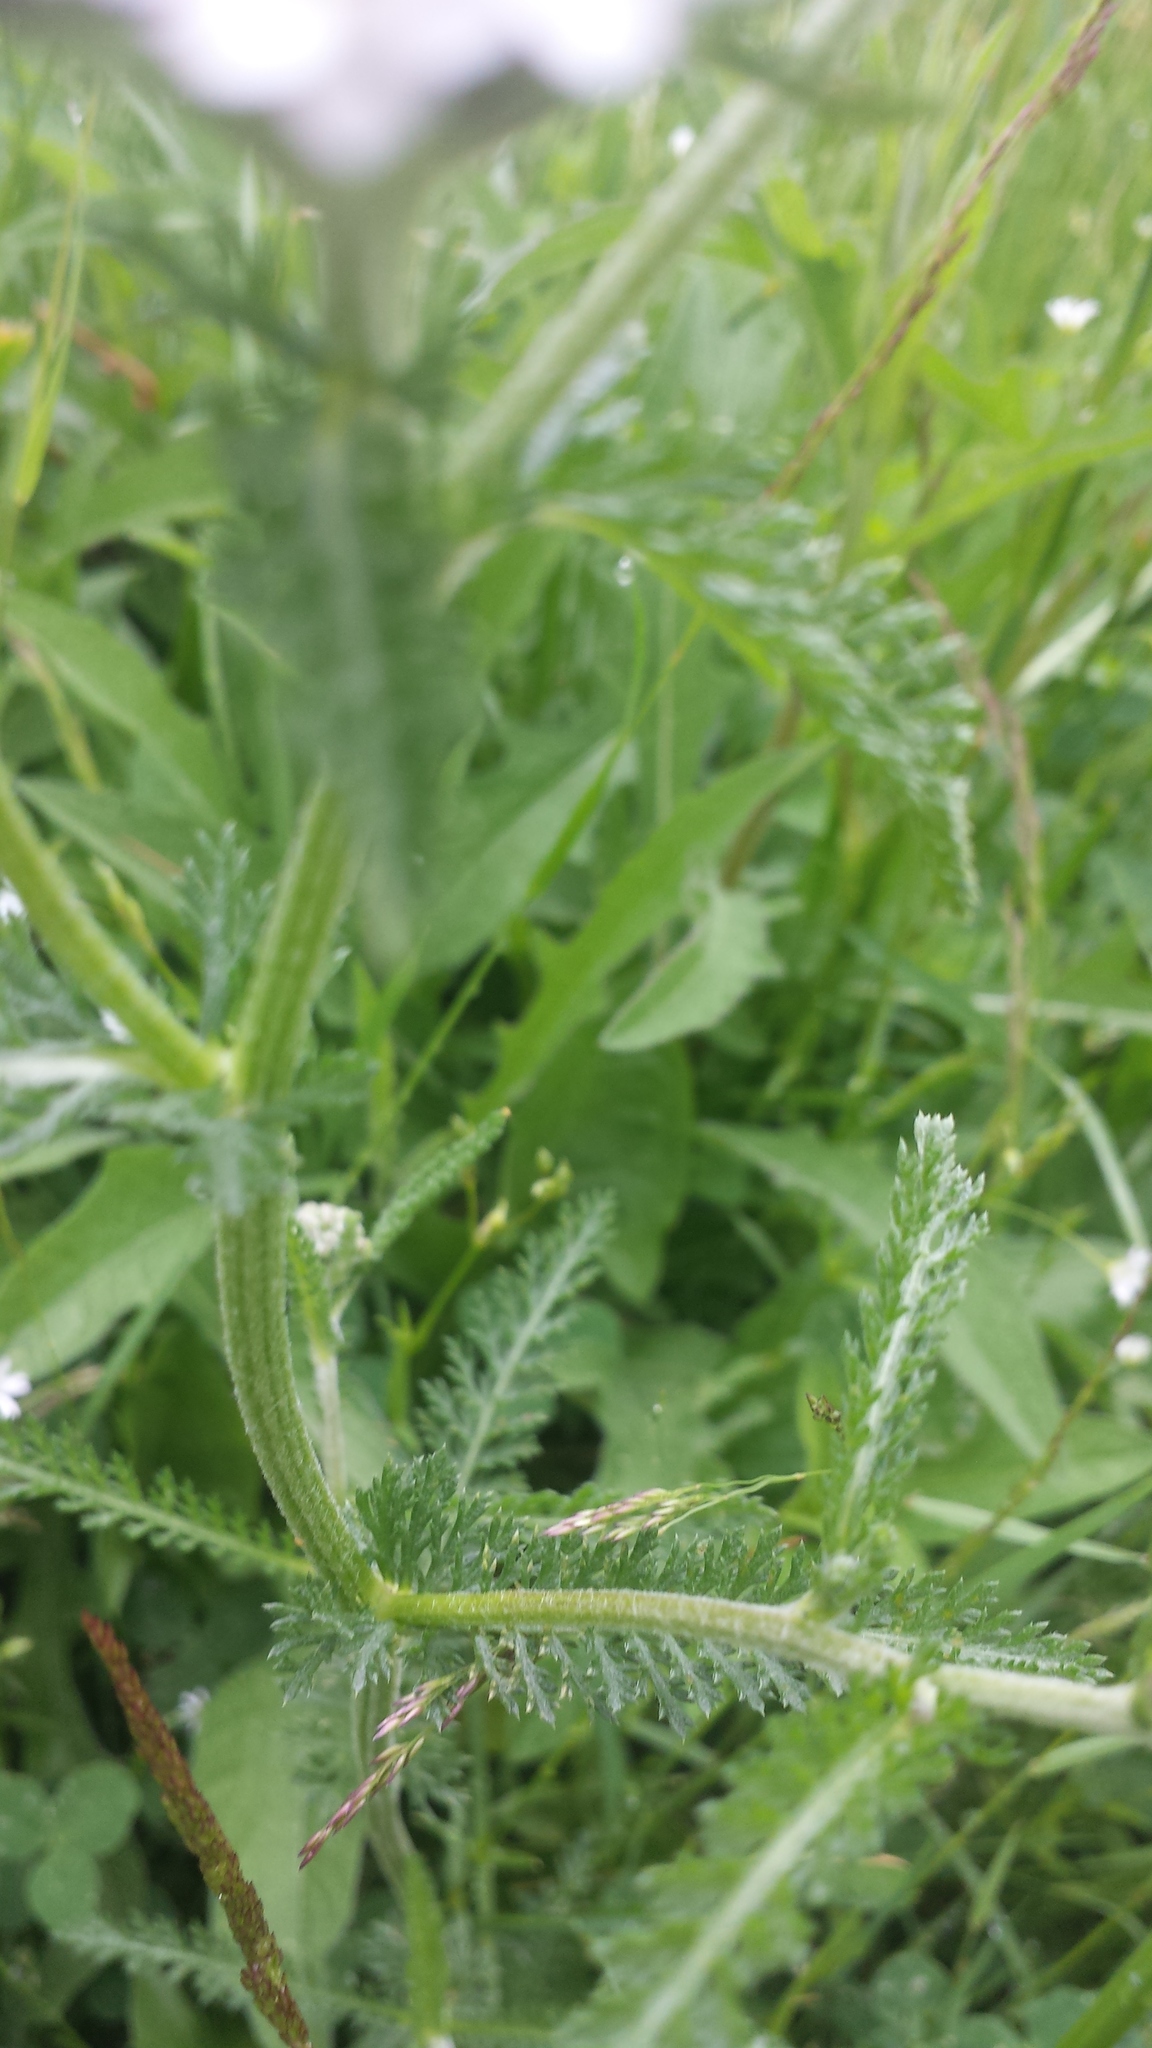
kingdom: Plantae
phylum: Tracheophyta
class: Magnoliopsida
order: Asterales
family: Asteraceae
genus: Achillea
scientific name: Achillea millefolium
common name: Yarrow
